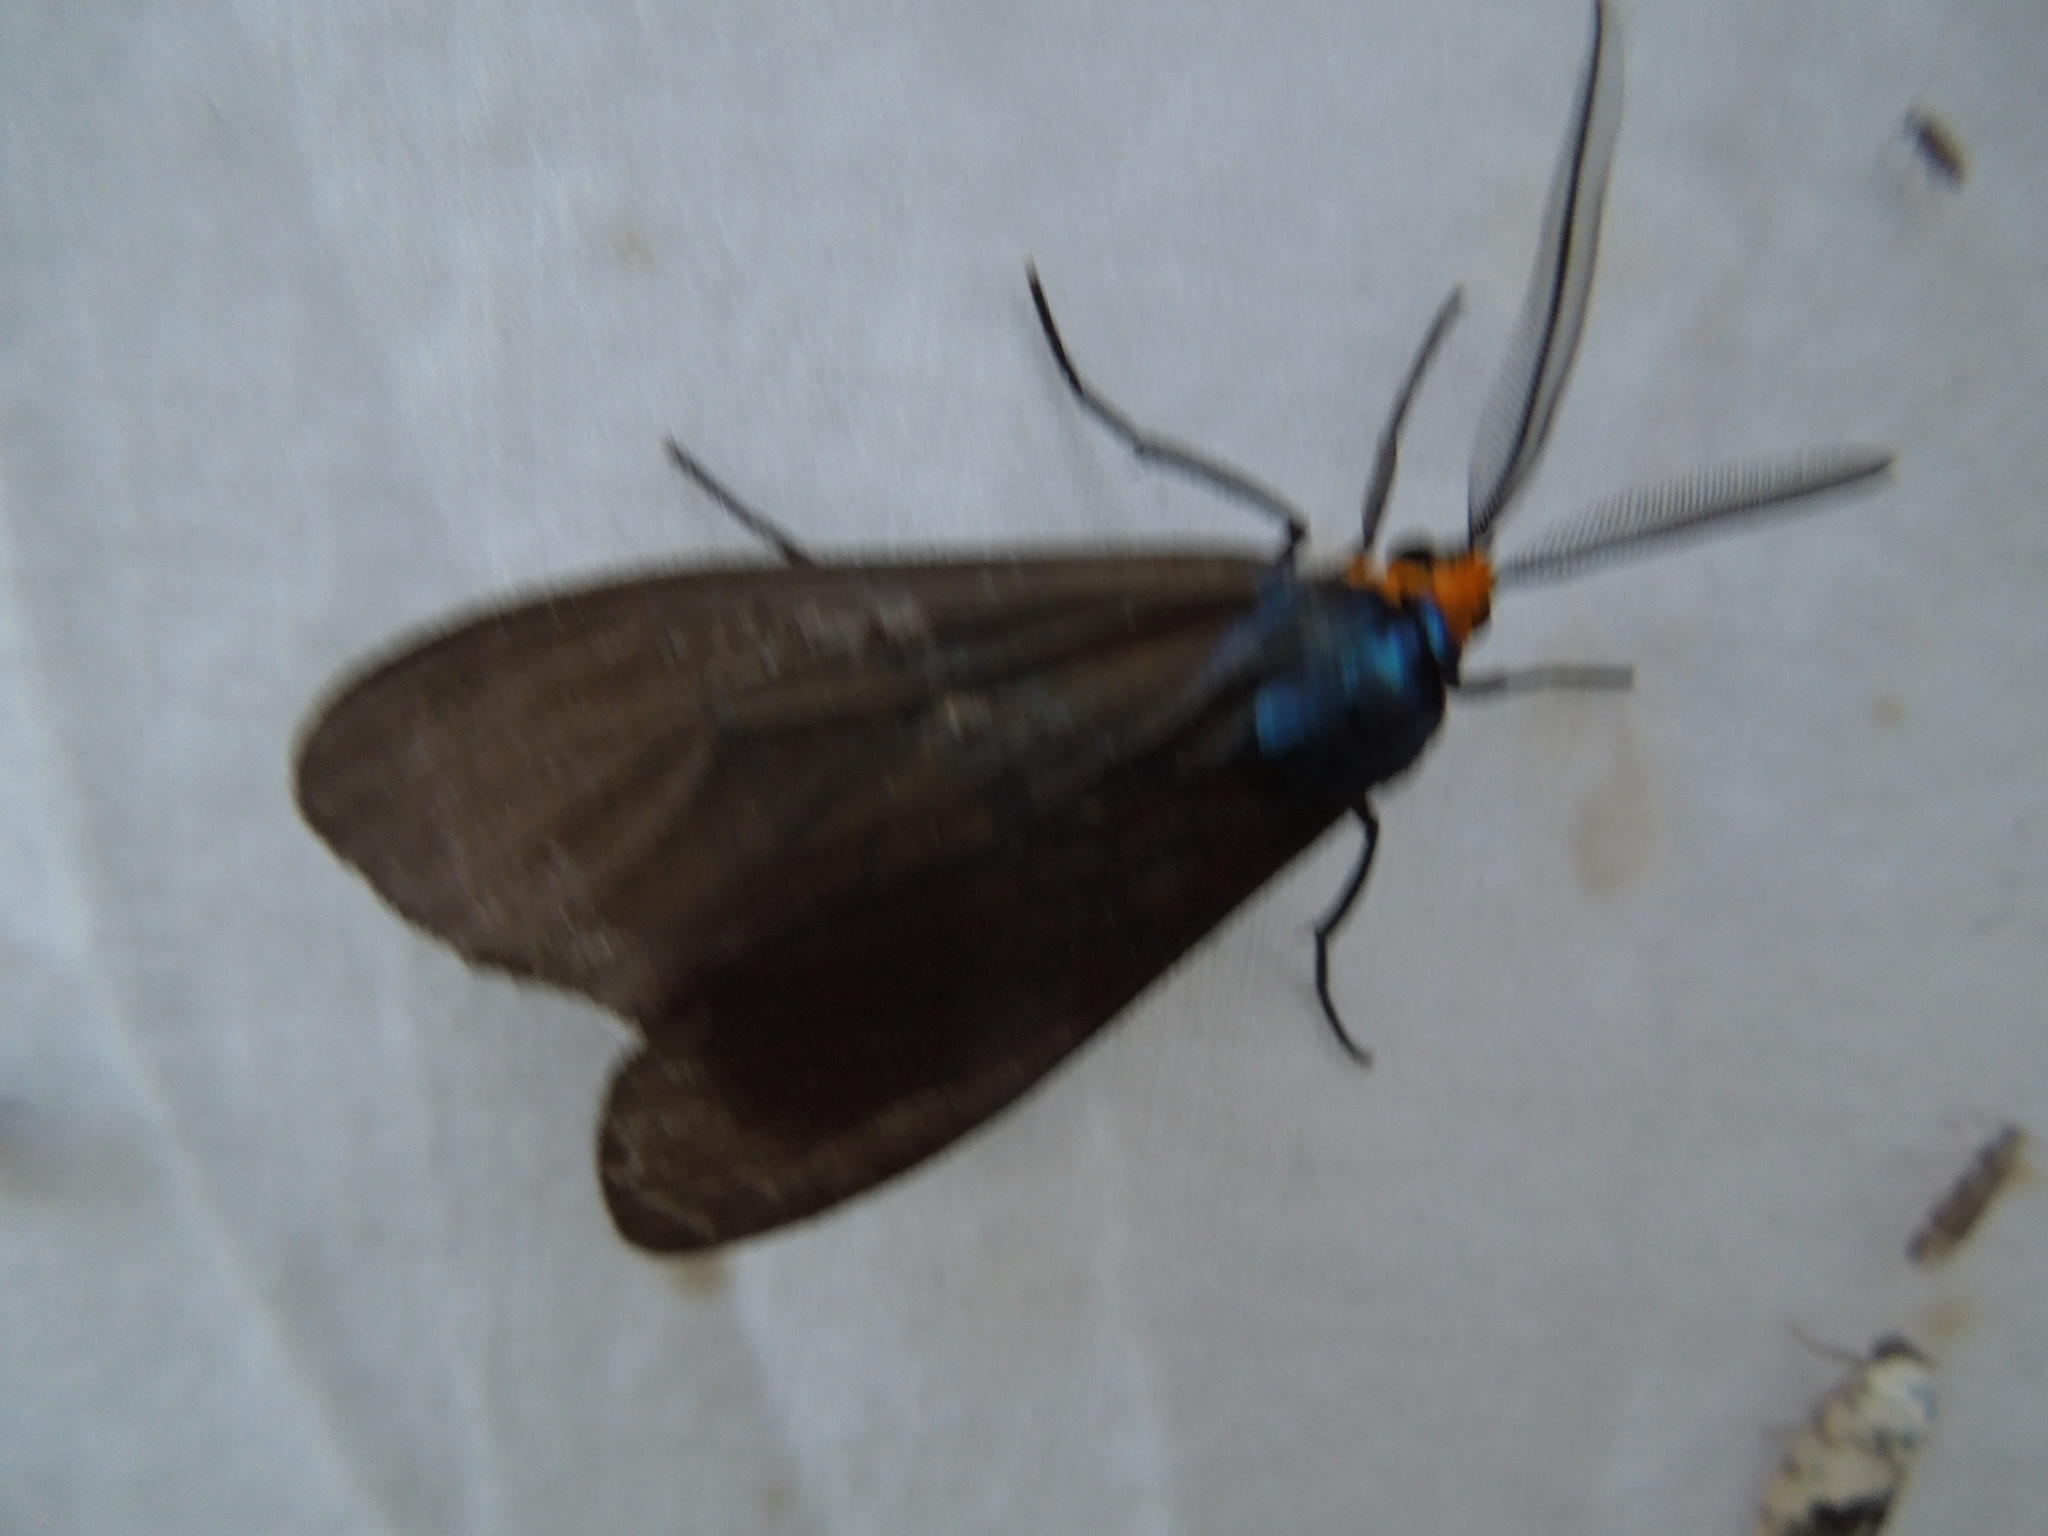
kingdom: Animalia
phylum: Arthropoda
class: Insecta
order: Lepidoptera
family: Erebidae
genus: Ctenucha
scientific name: Ctenucha virginica
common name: Virginia ctenucha moth
